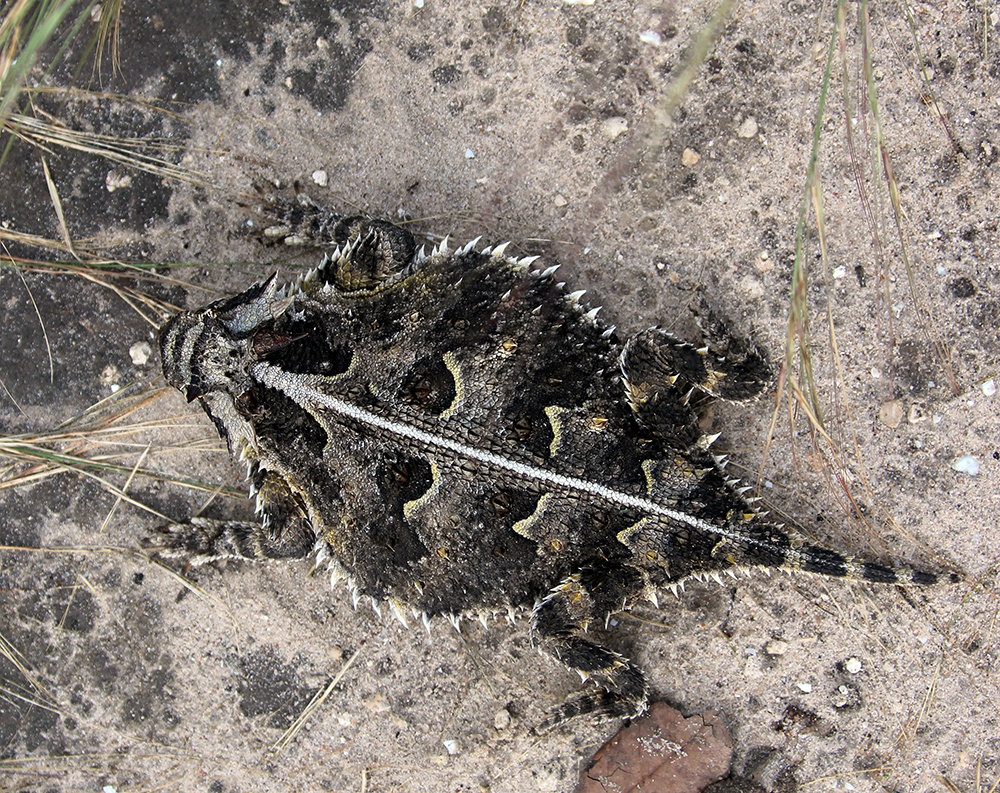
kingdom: Animalia
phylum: Chordata
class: Squamata
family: Phrynosomatidae
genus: Phrynosoma
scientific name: Phrynosoma cornutum
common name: Texas horned lizard
